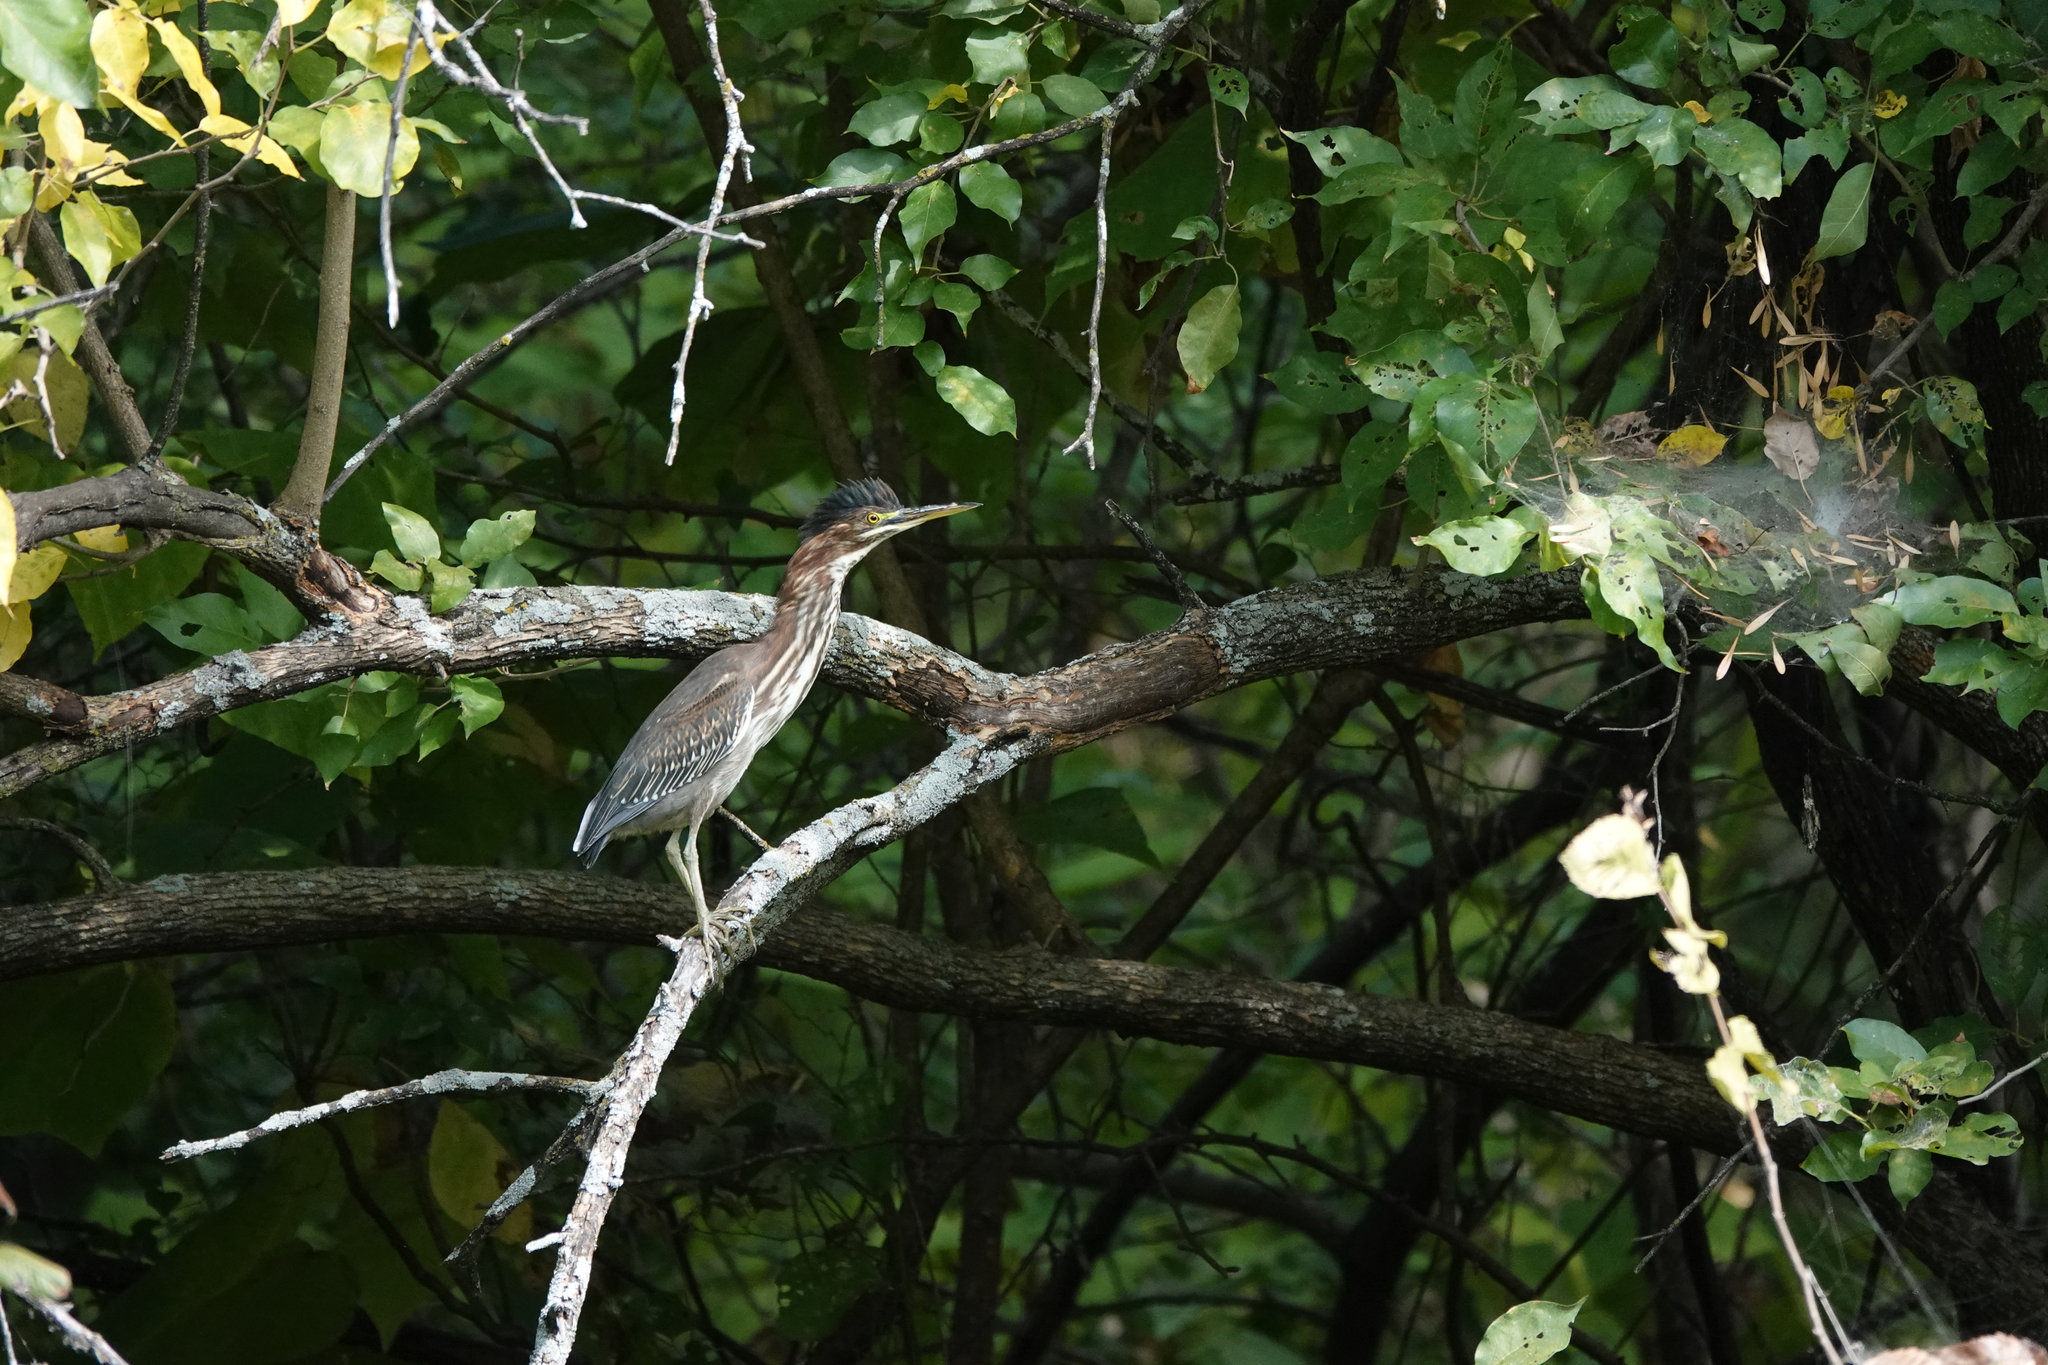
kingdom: Animalia
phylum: Chordata
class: Aves
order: Pelecaniformes
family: Ardeidae
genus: Butorides
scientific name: Butorides virescens
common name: Green heron
